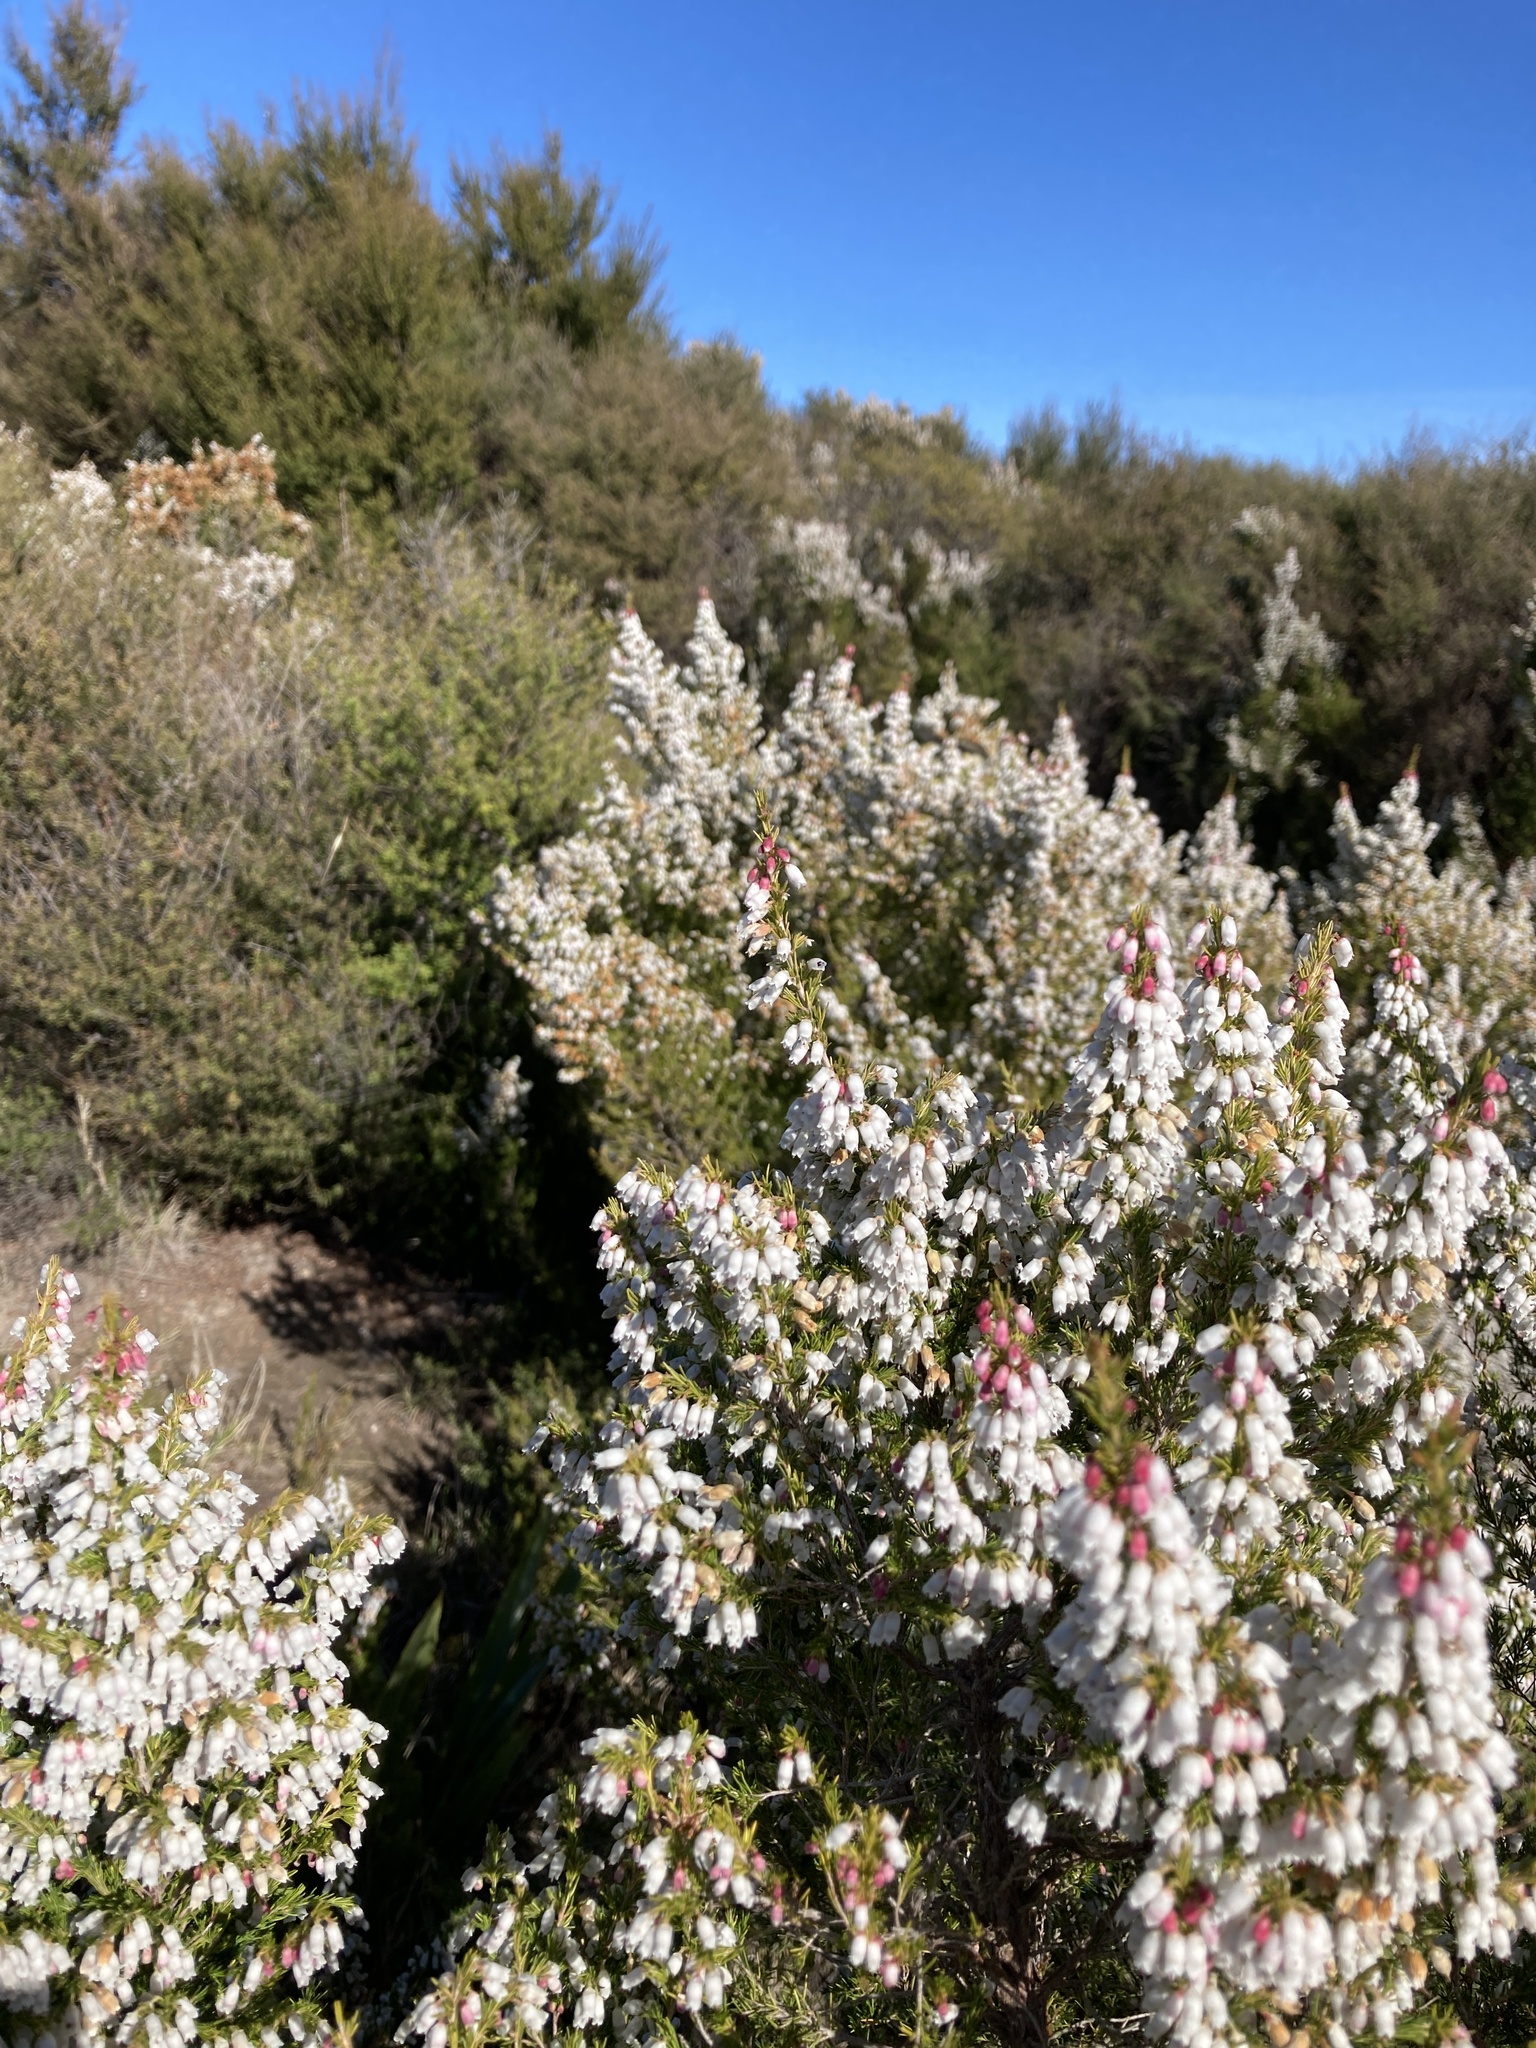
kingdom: Plantae
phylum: Tracheophyta
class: Magnoliopsida
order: Ericales
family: Ericaceae
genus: Erica
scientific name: Erica lusitanica
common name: Spanish heath
